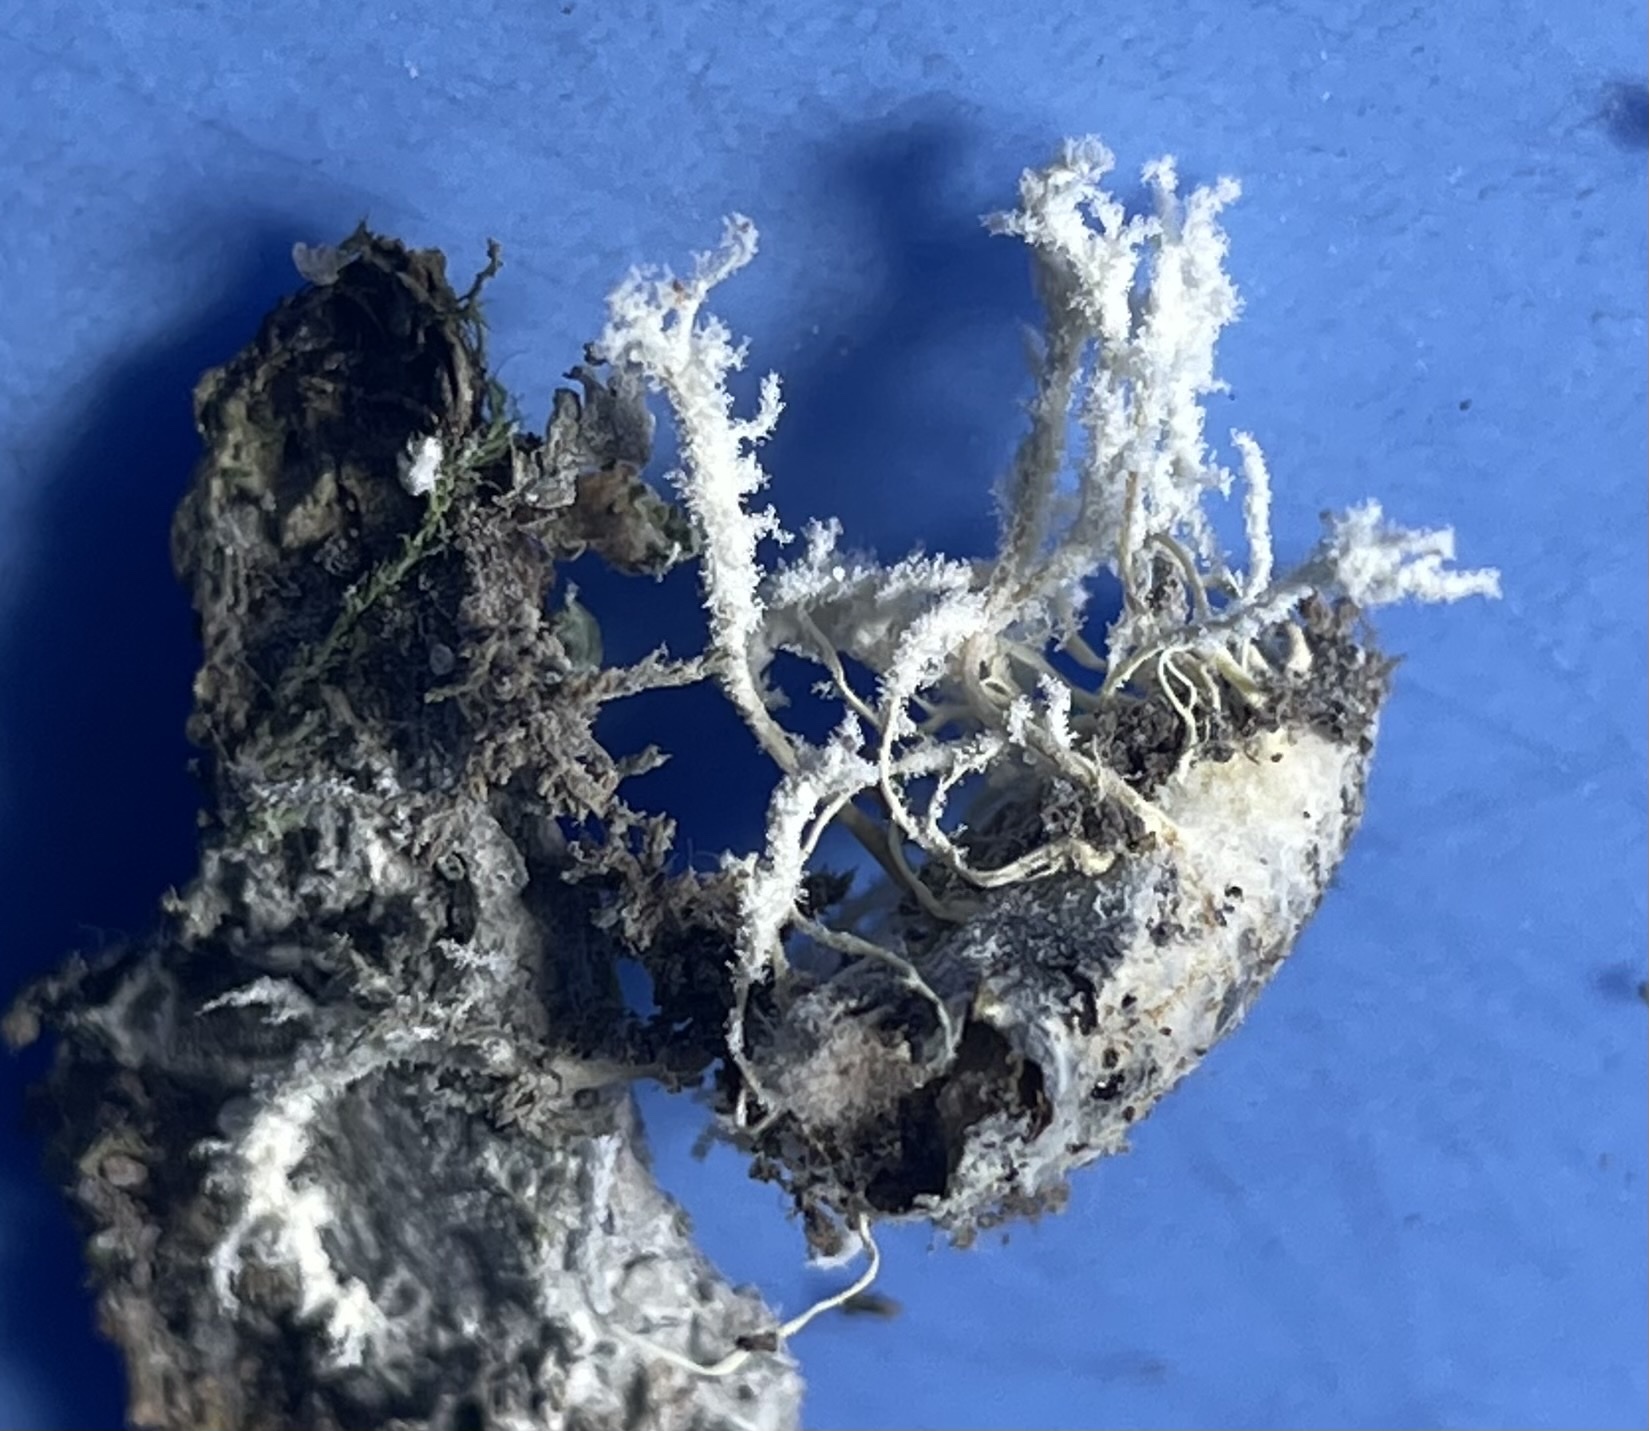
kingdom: Fungi
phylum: Ascomycota
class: Sordariomycetes
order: Hypocreales
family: Cordycipitaceae
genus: Cordyceps
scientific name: Cordyceps tenuipes
